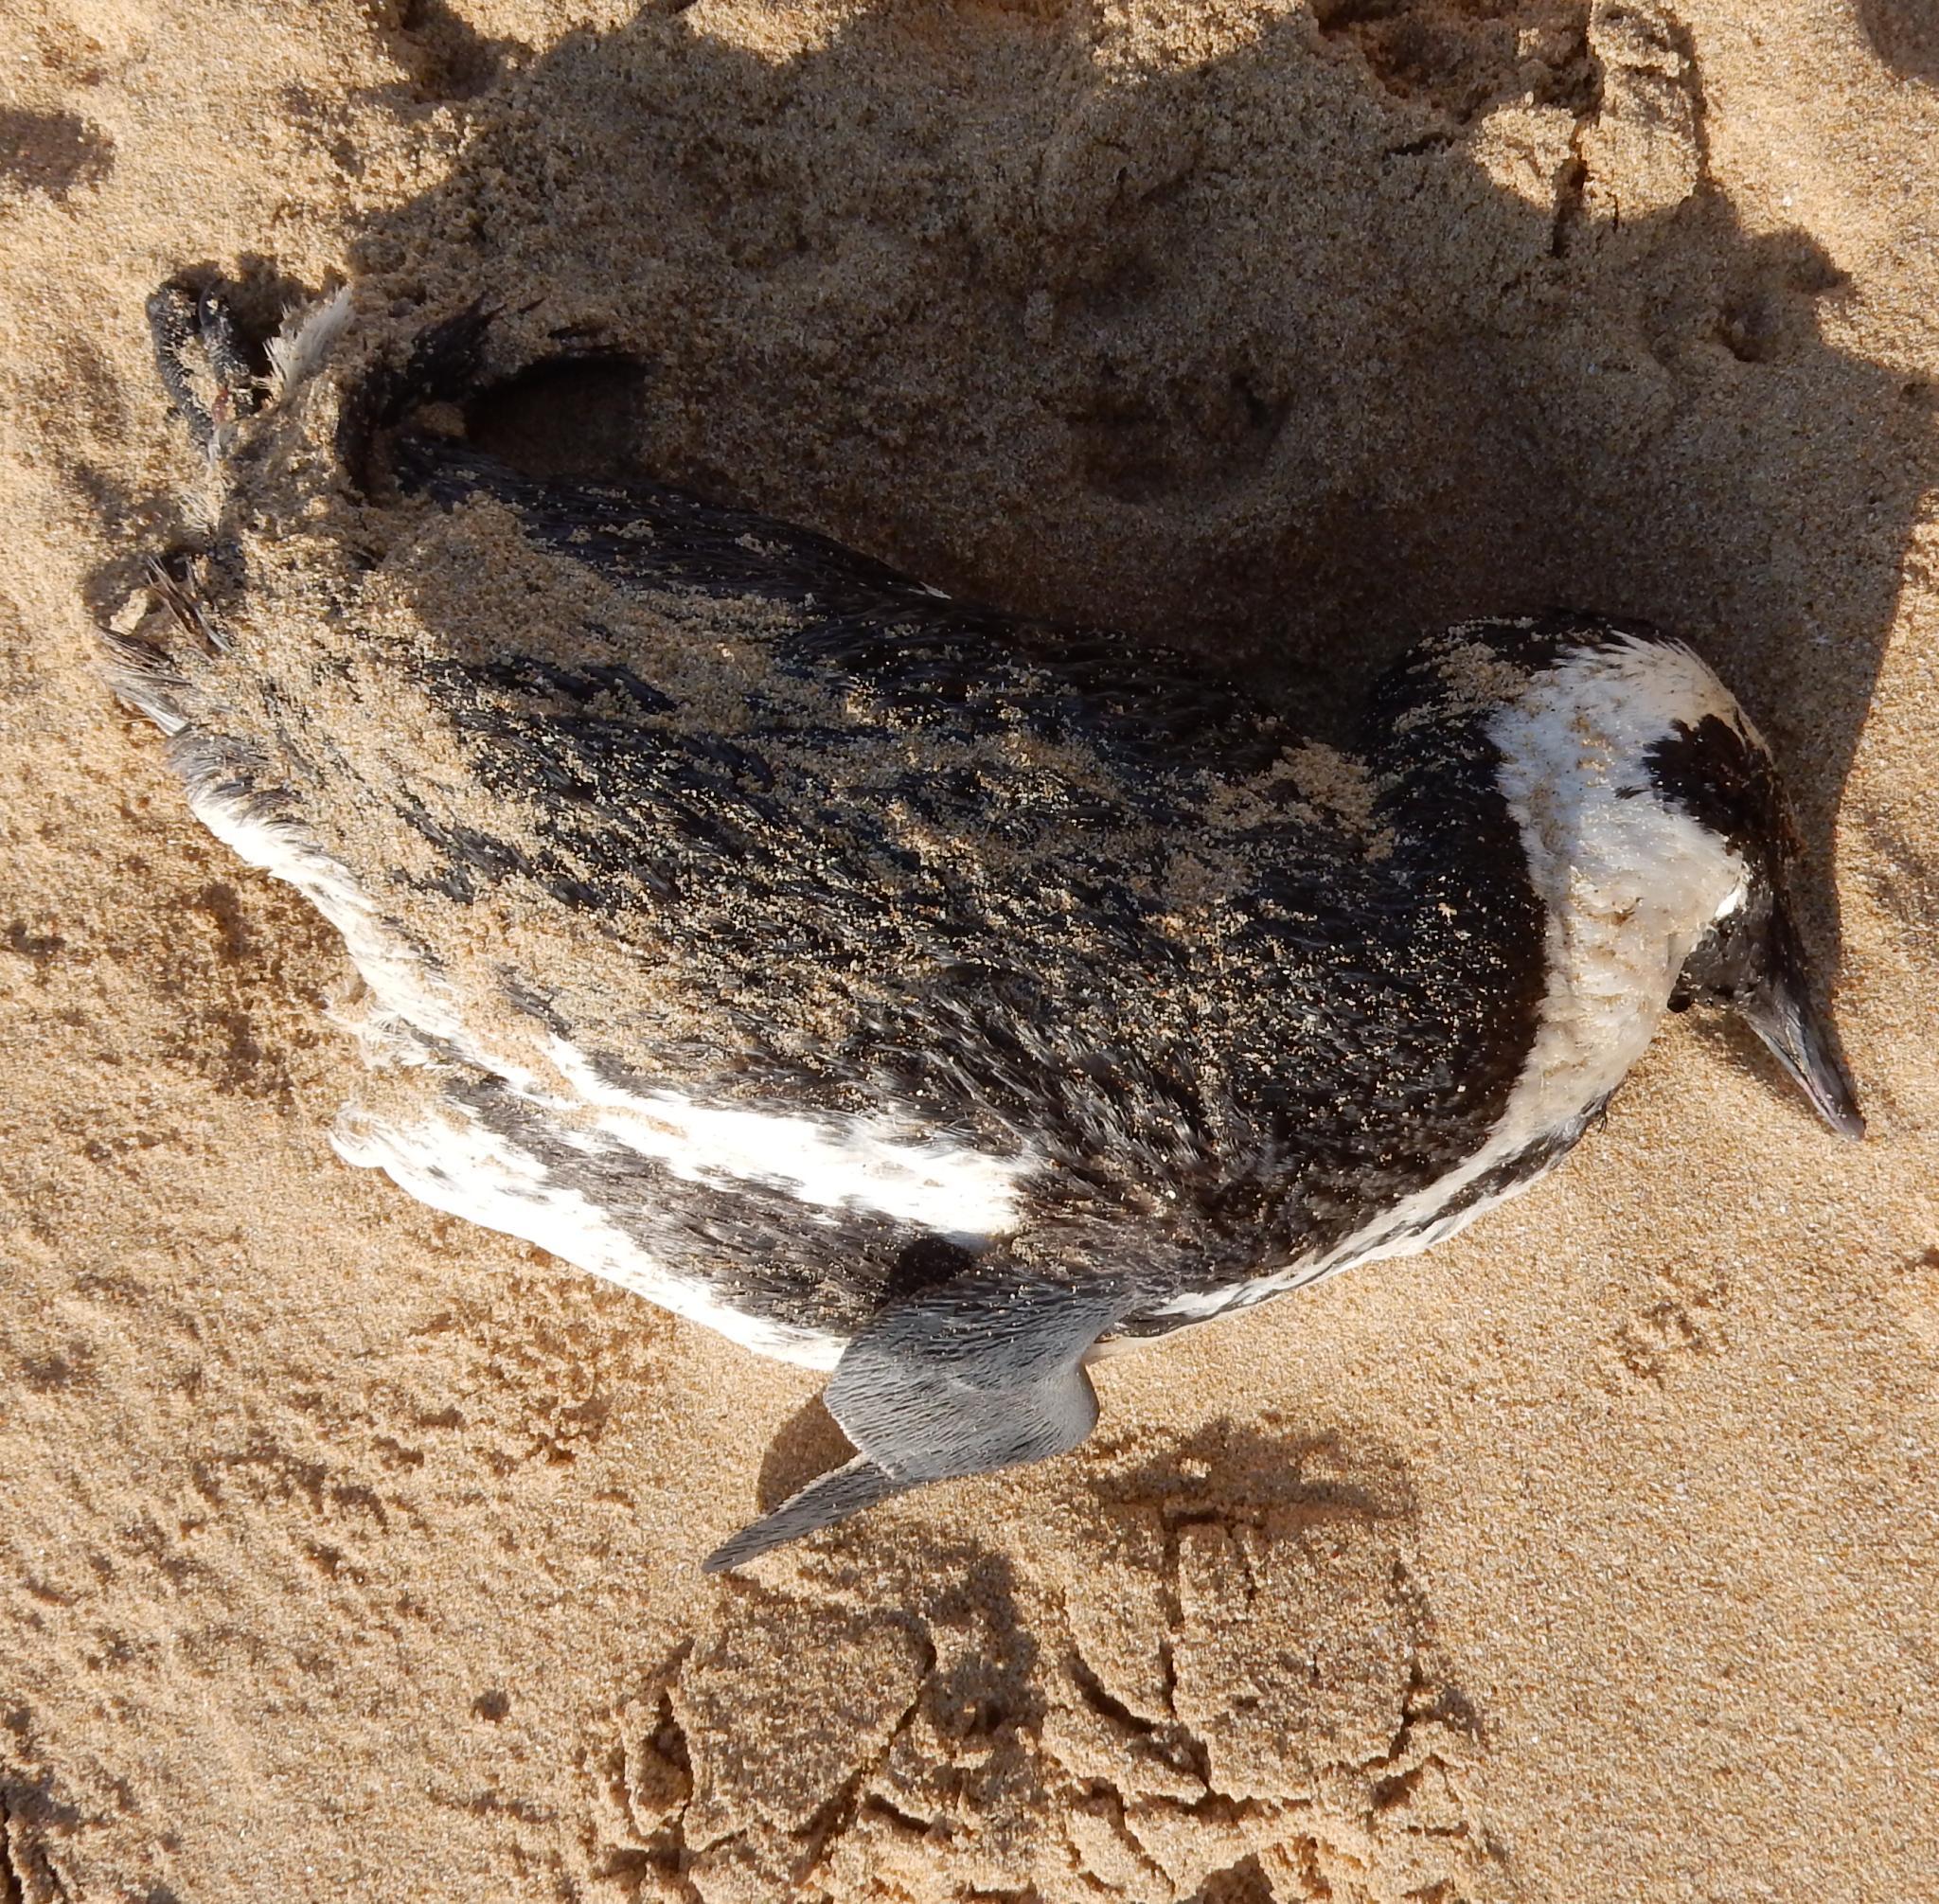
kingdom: Animalia
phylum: Chordata
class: Aves
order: Sphenisciformes
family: Spheniscidae
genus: Spheniscus
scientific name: Spheniscus demersus
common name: African penguin
